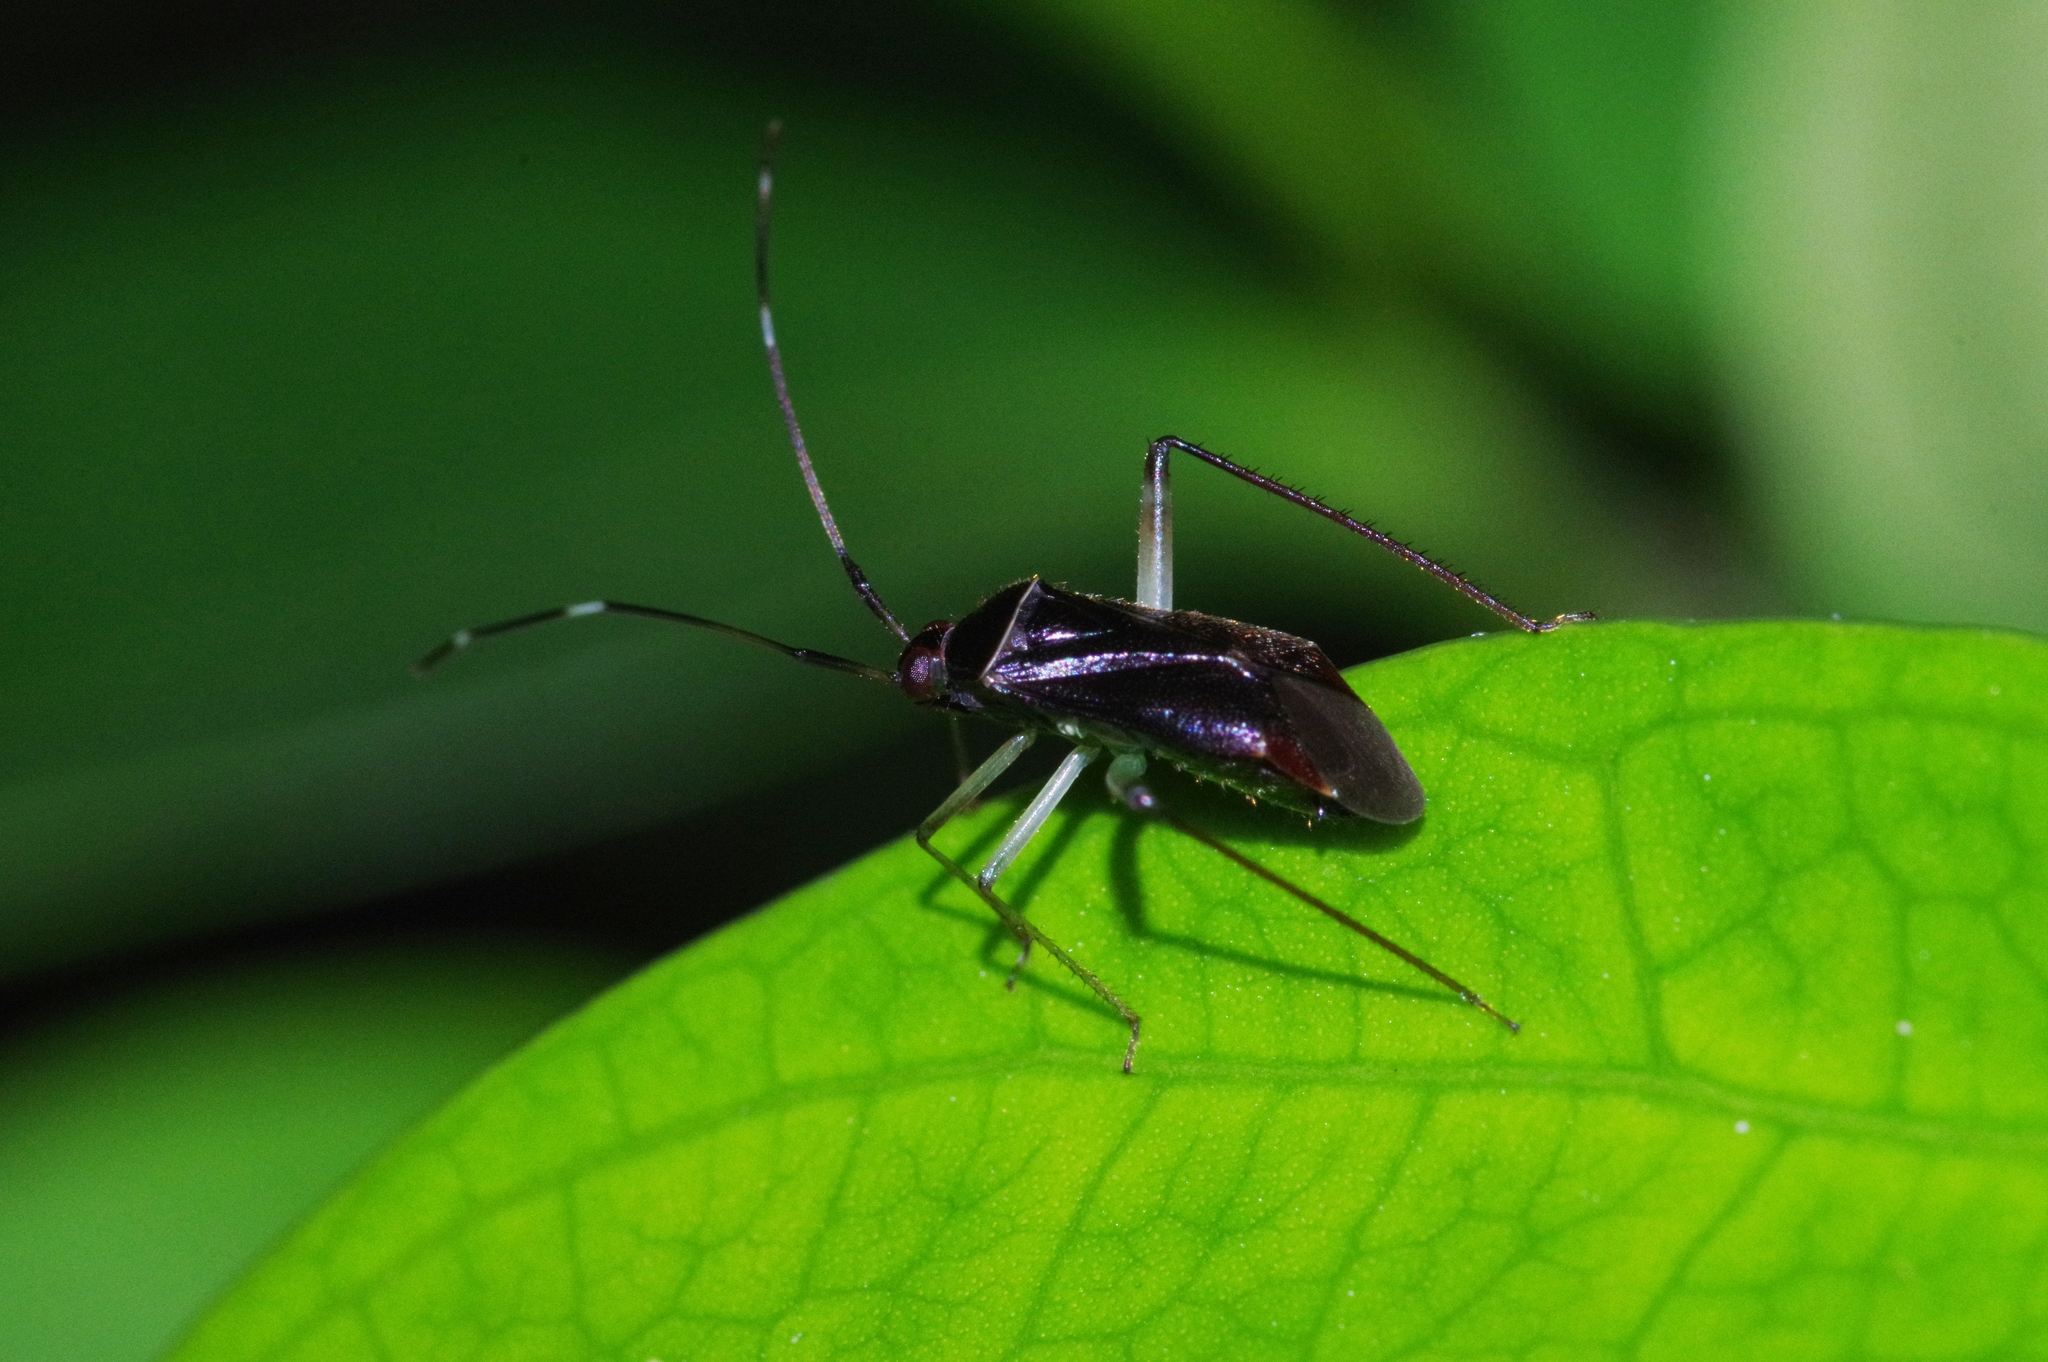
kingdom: Animalia
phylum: Arthropoda
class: Insecta
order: Hemiptera
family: Miridae
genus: Orientomiris
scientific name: Orientomiris flavicollaris
